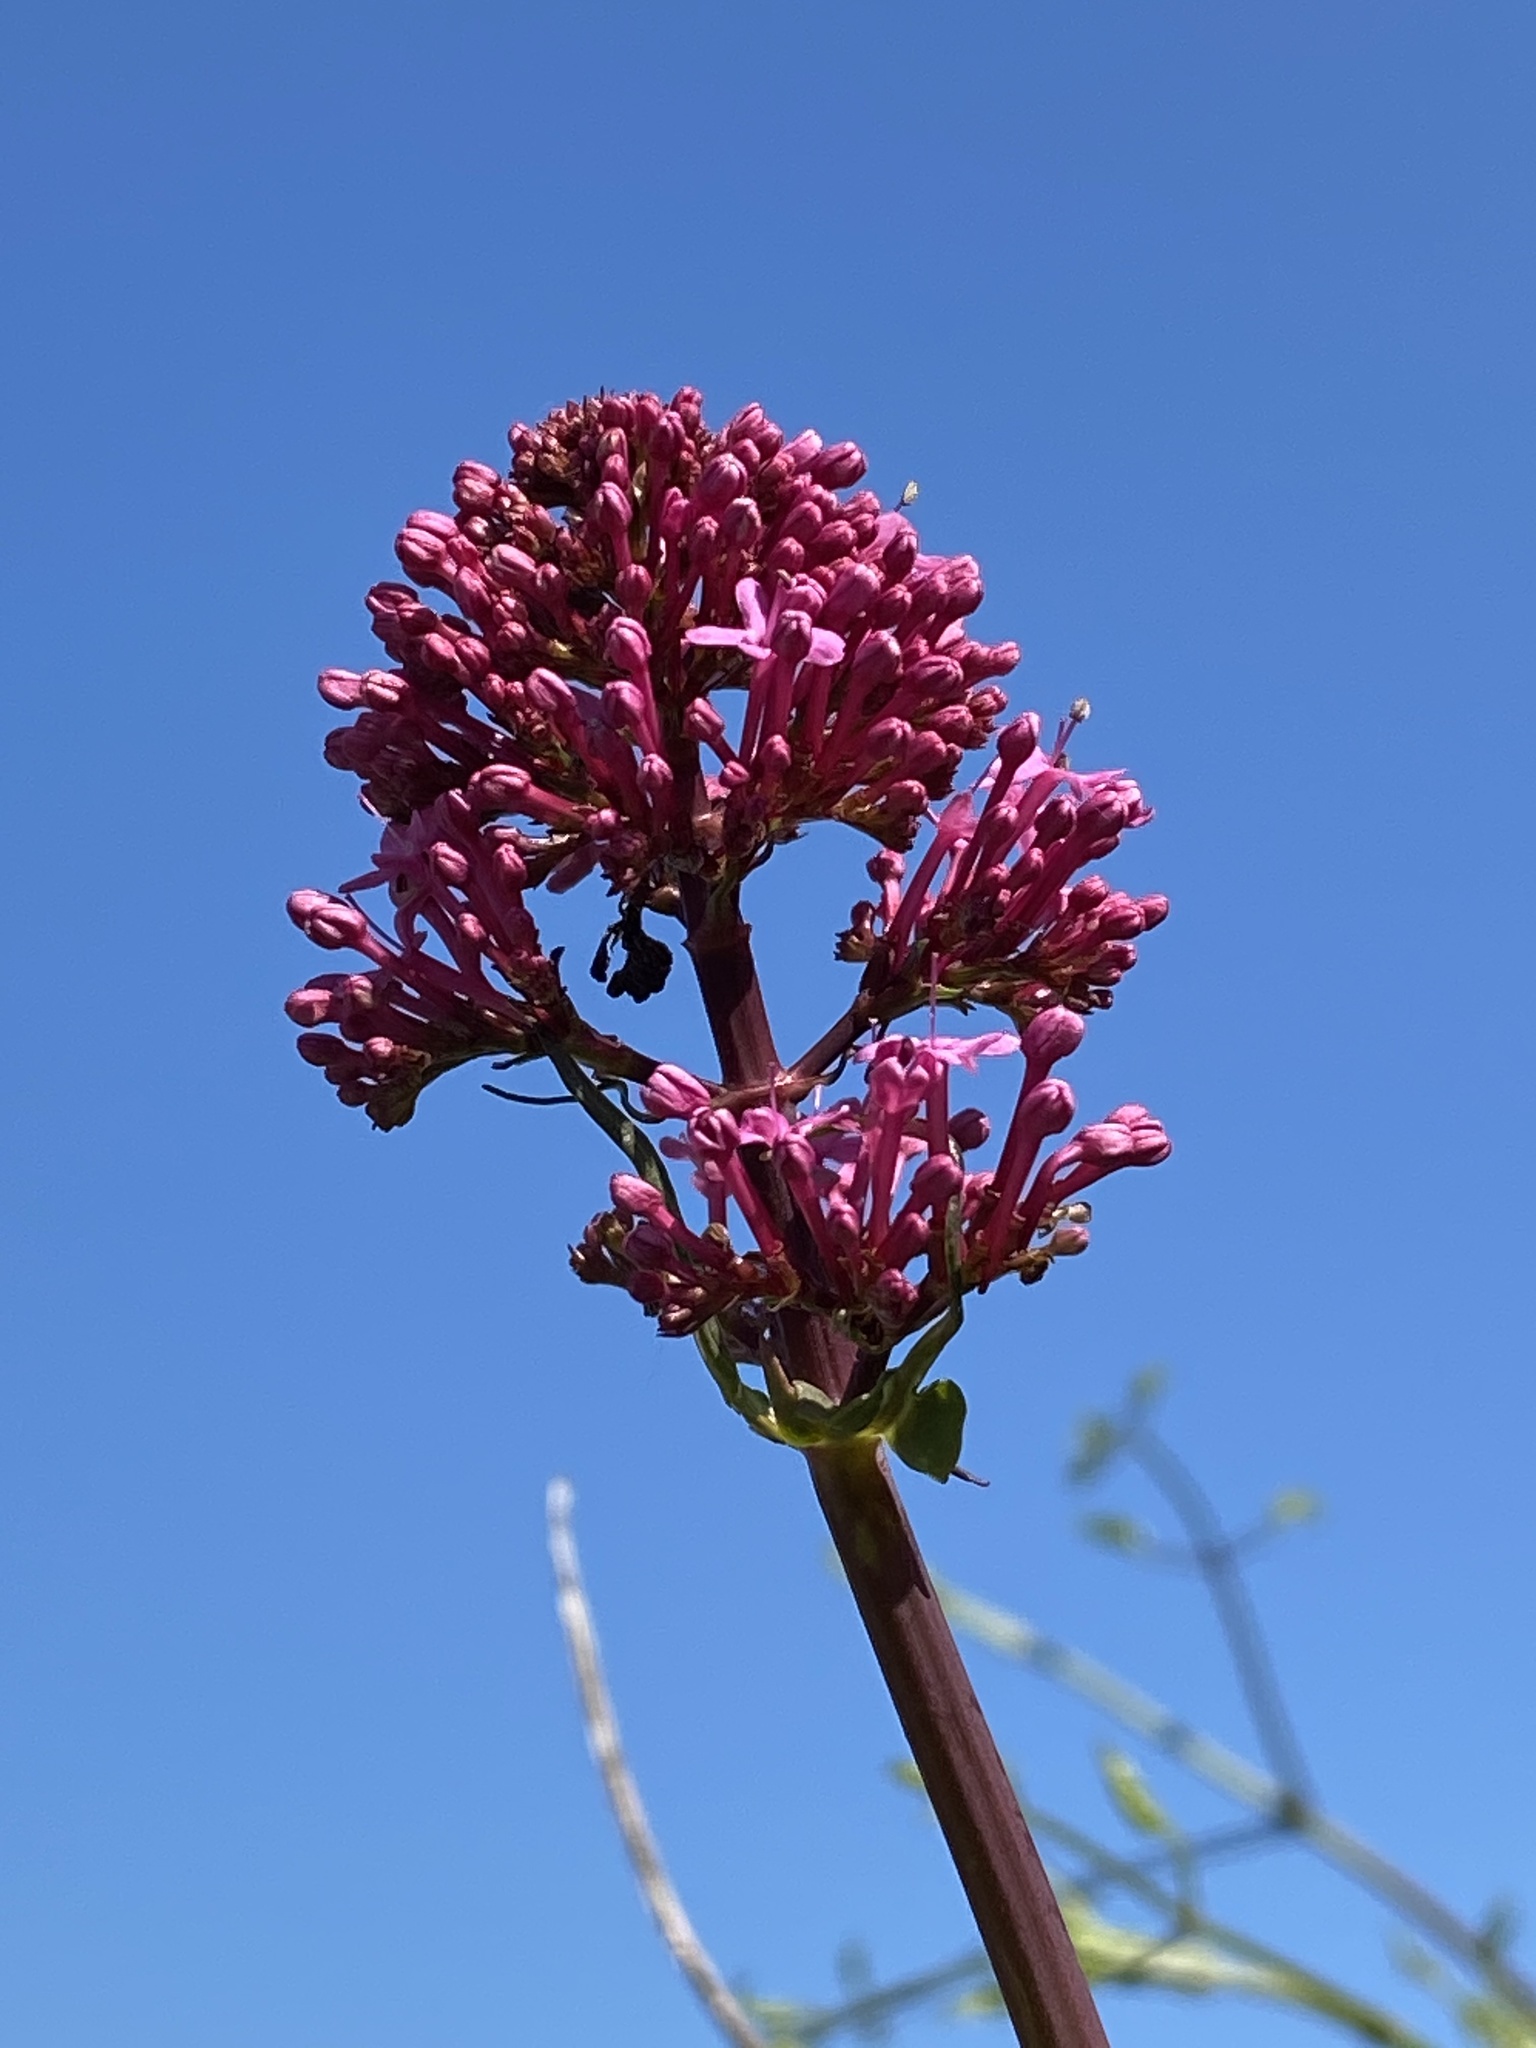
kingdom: Plantae
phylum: Tracheophyta
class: Magnoliopsida
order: Dipsacales
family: Caprifoliaceae
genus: Centranthus
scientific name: Centranthus ruber
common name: Red valerian
